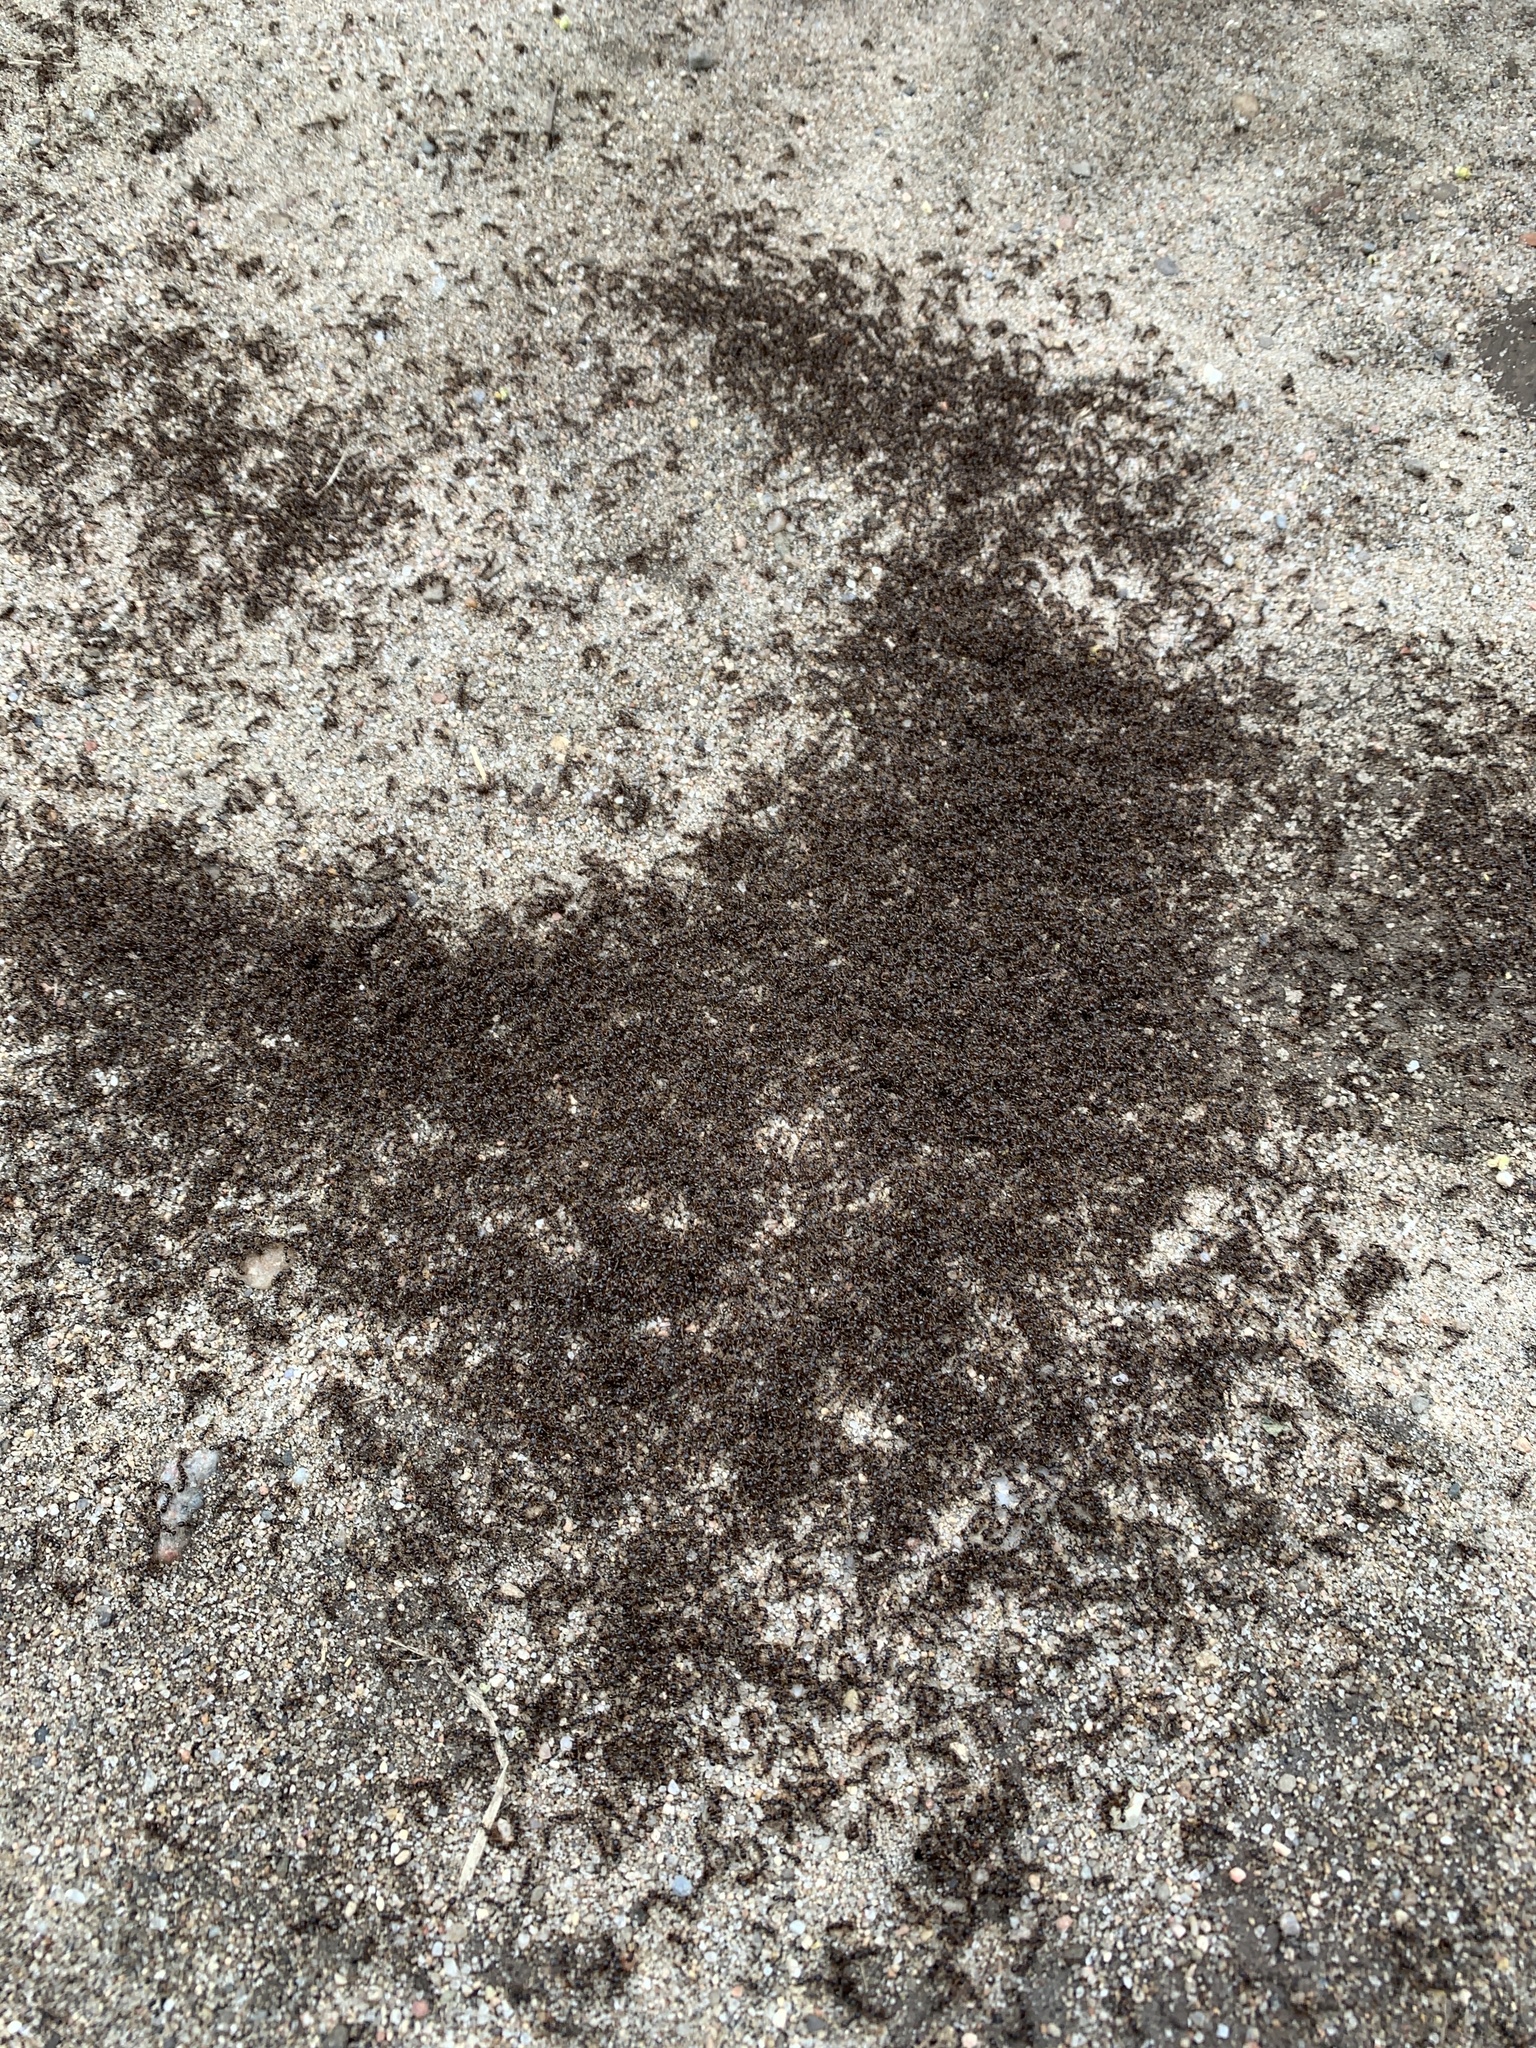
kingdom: Animalia
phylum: Arthropoda
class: Insecta
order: Hymenoptera
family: Formicidae
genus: Tetramorium
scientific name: Tetramorium immigrans
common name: Pavement ant
